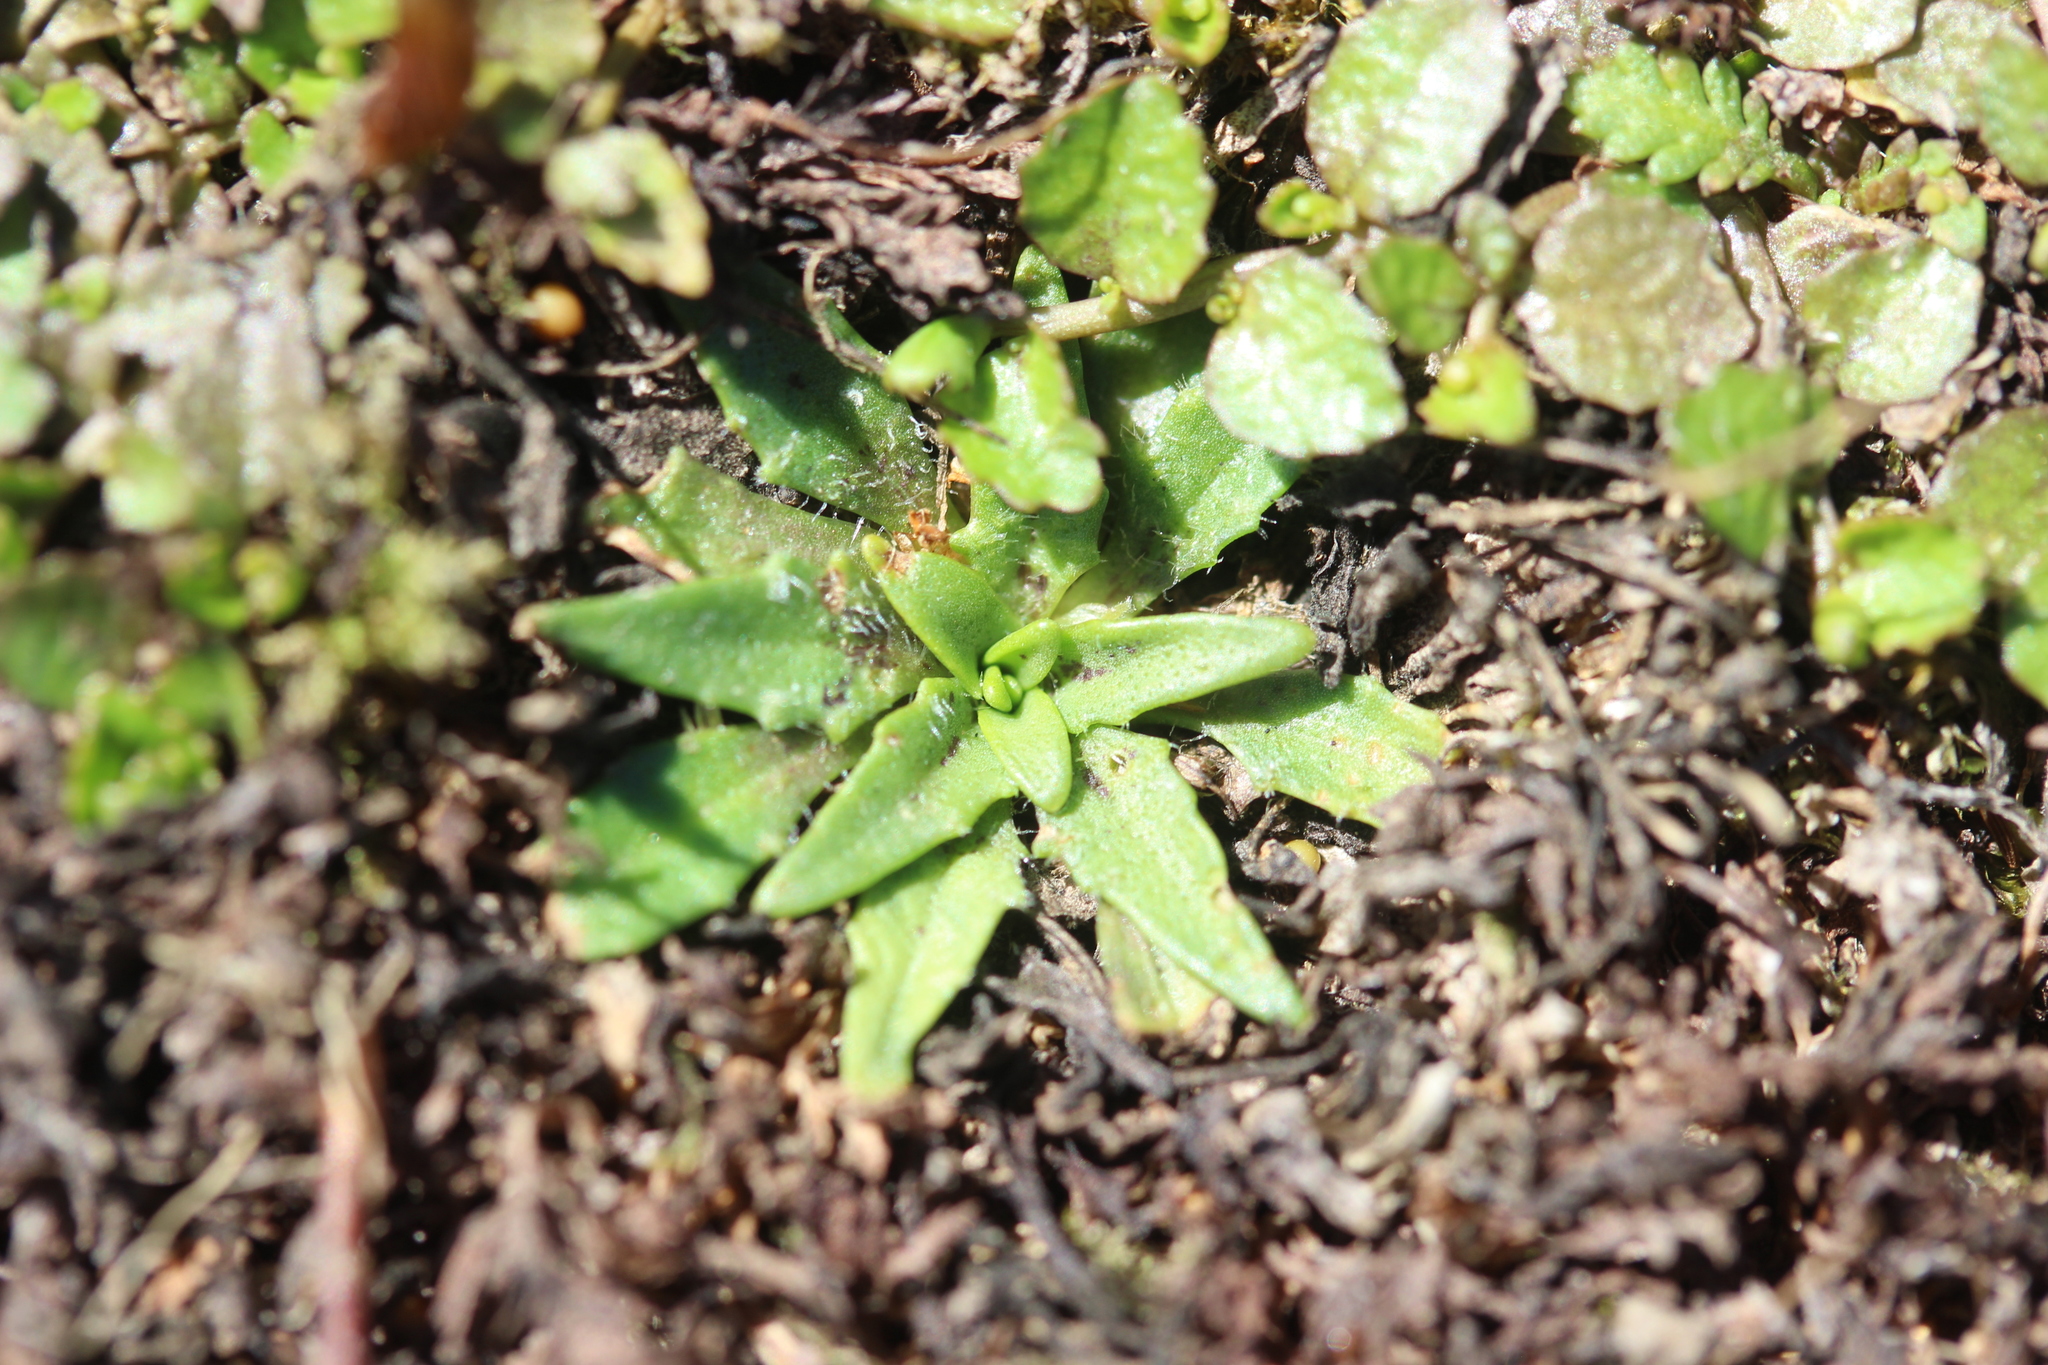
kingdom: Plantae
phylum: Tracheophyta
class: Magnoliopsida
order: Lamiales
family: Plantaginaceae
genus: Plantago
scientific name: Plantago triandra
